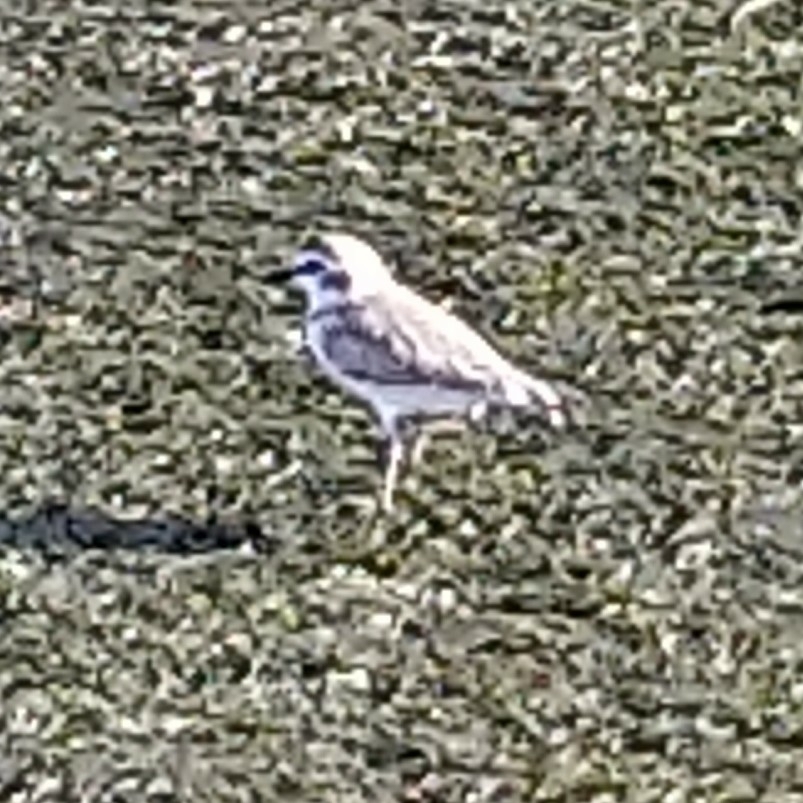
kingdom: Animalia
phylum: Chordata
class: Aves
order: Charadriiformes
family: Charadriidae
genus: Anarhynchus
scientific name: Anarhynchus
